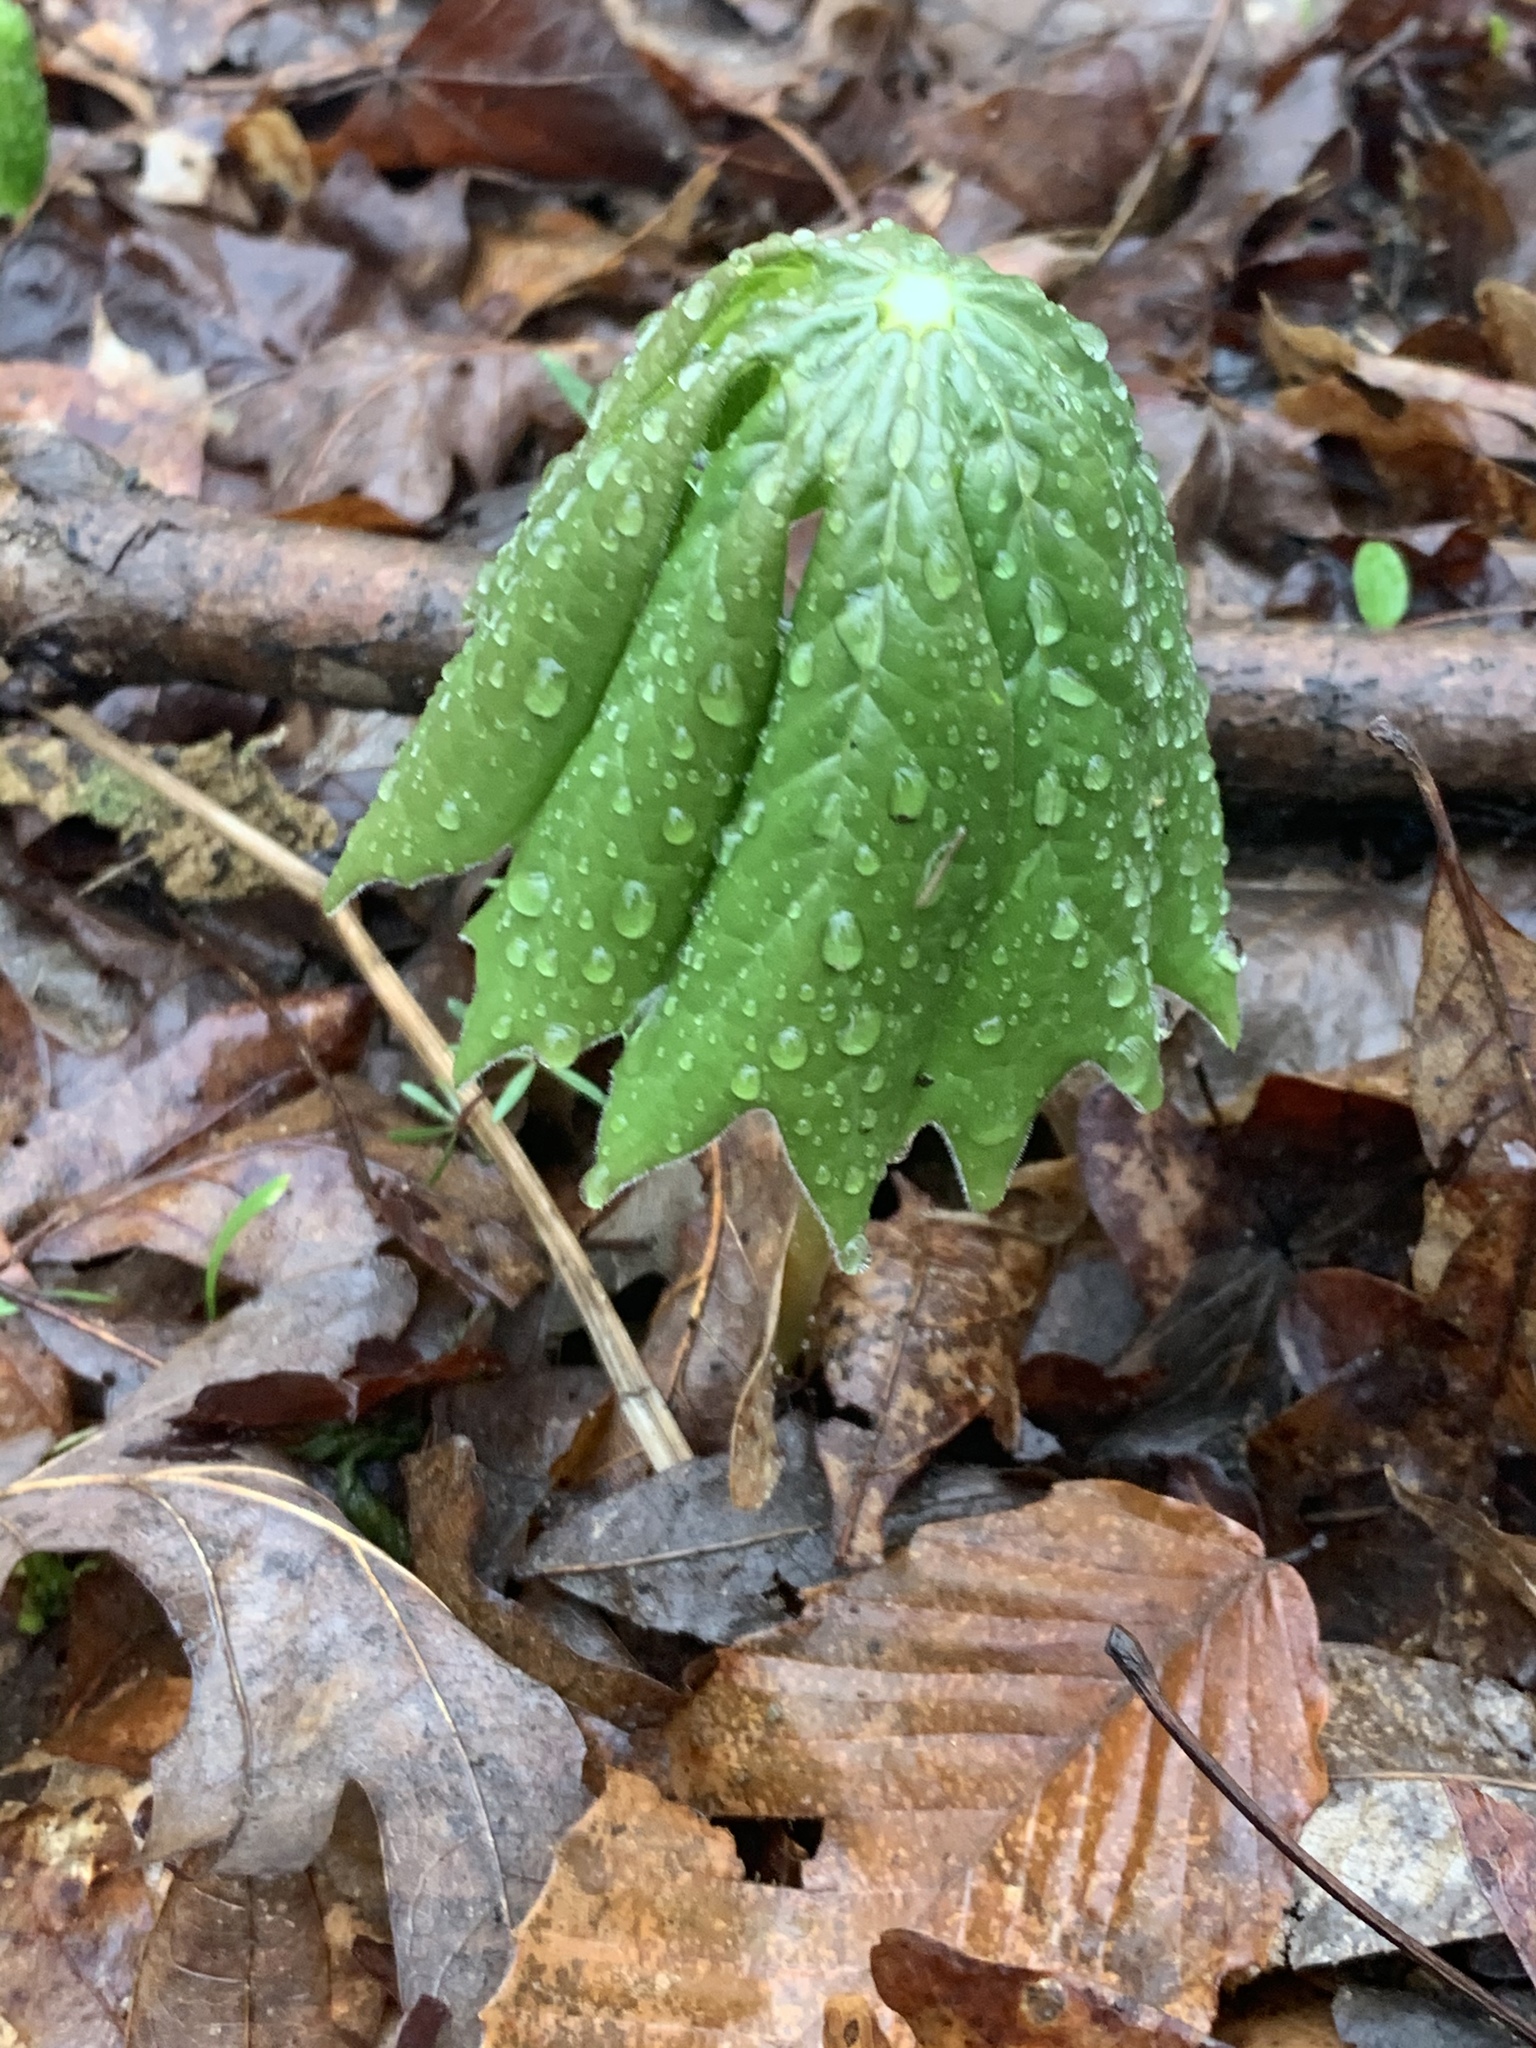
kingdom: Plantae
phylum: Tracheophyta
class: Magnoliopsida
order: Ranunculales
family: Berberidaceae
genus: Podophyllum
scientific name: Podophyllum peltatum
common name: Wild mandrake
